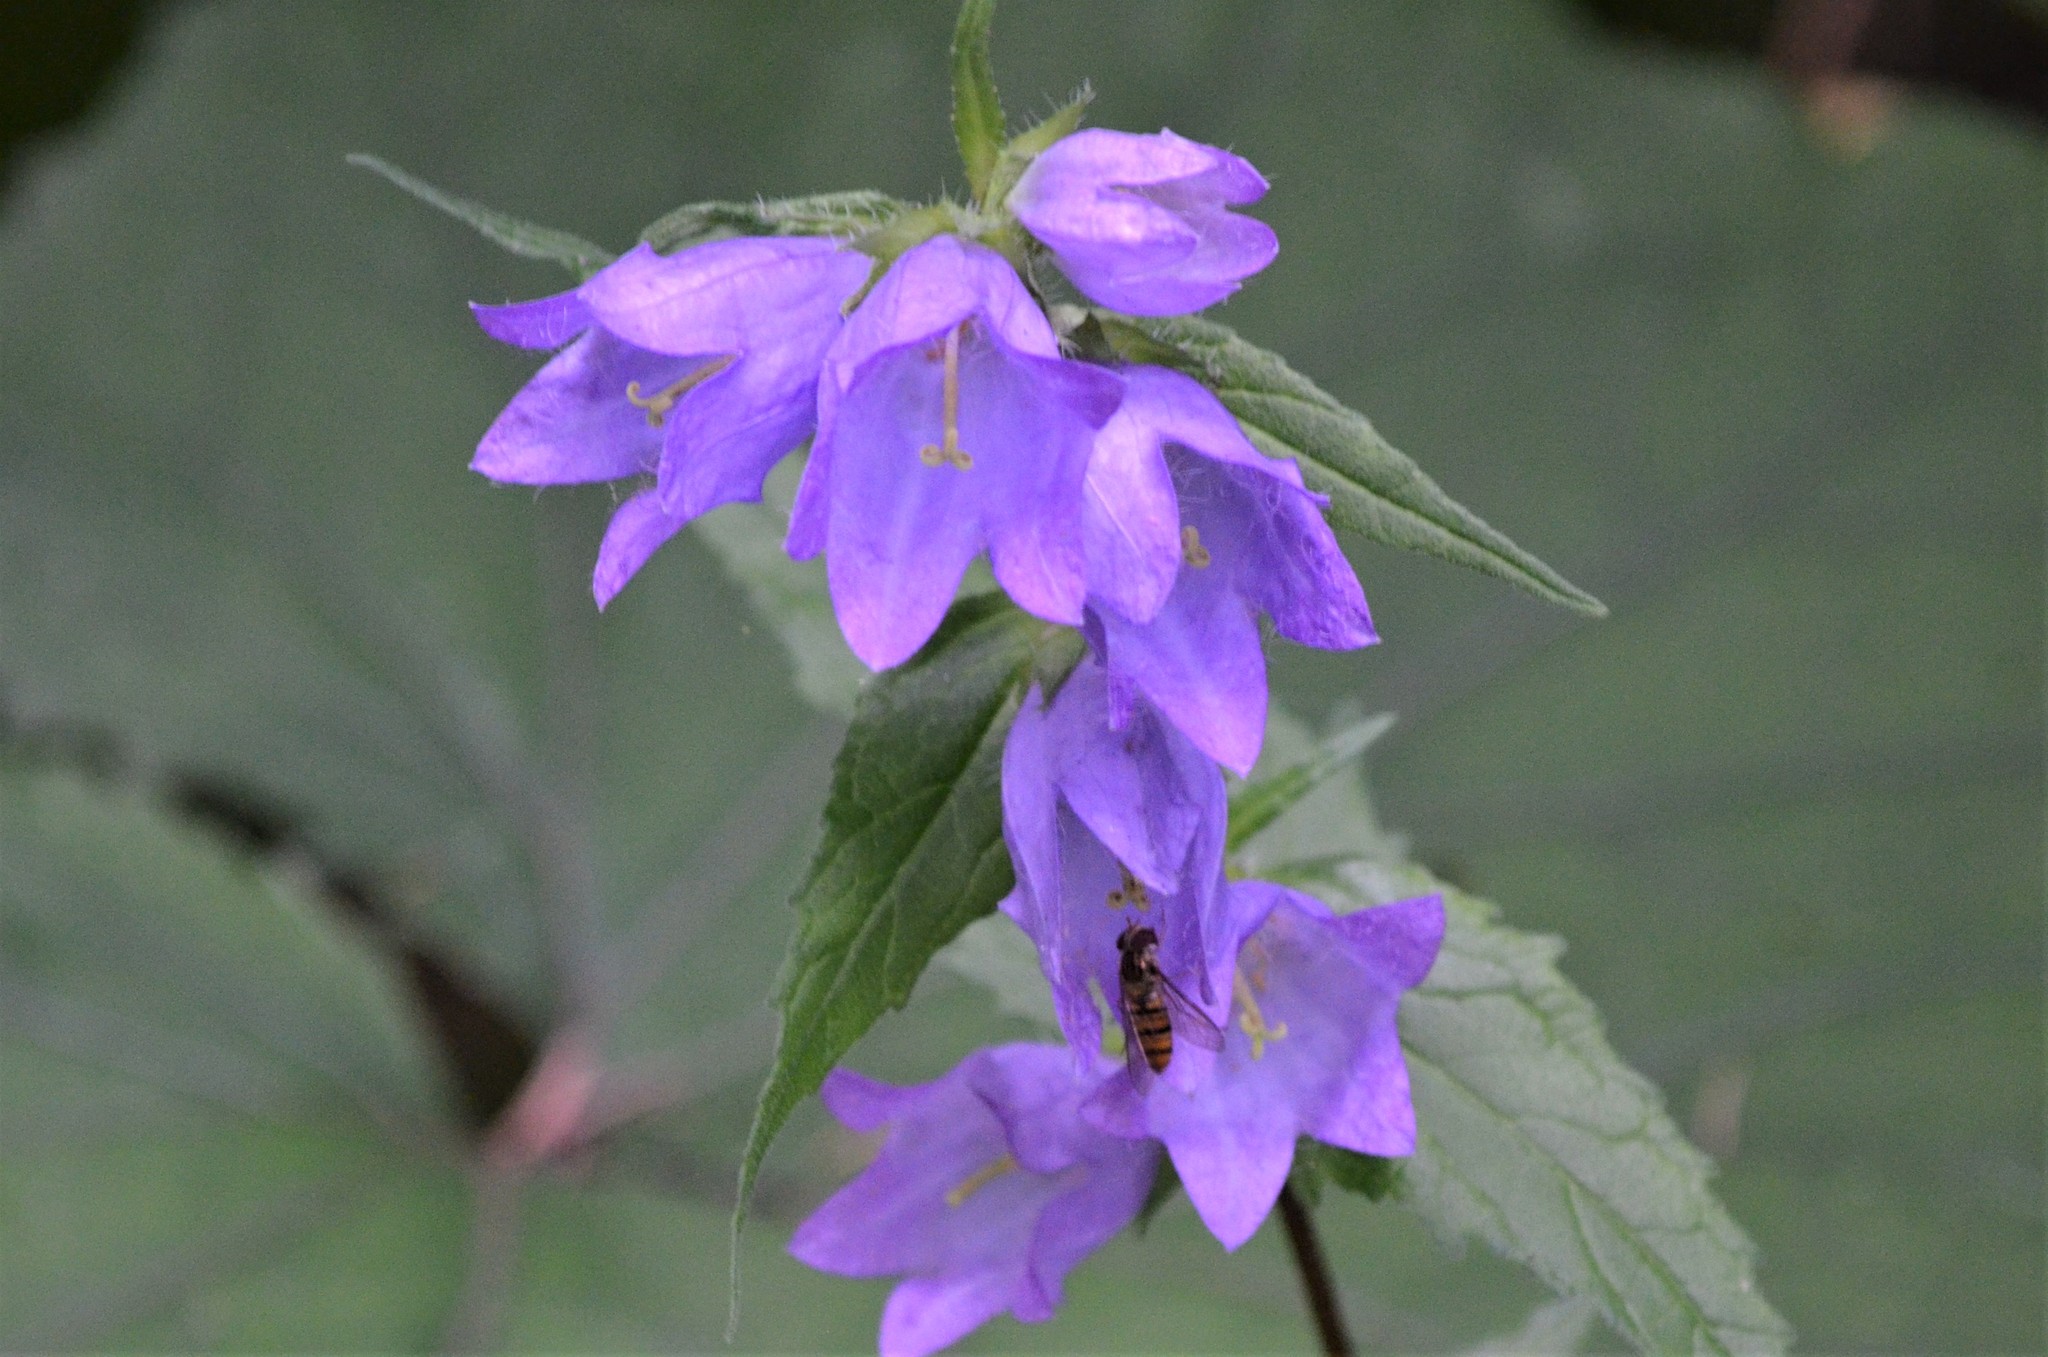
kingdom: Plantae
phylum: Tracheophyta
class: Magnoliopsida
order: Asterales
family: Campanulaceae
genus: Campanula
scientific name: Campanula trachelium
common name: Nettle-leaved bellflower
